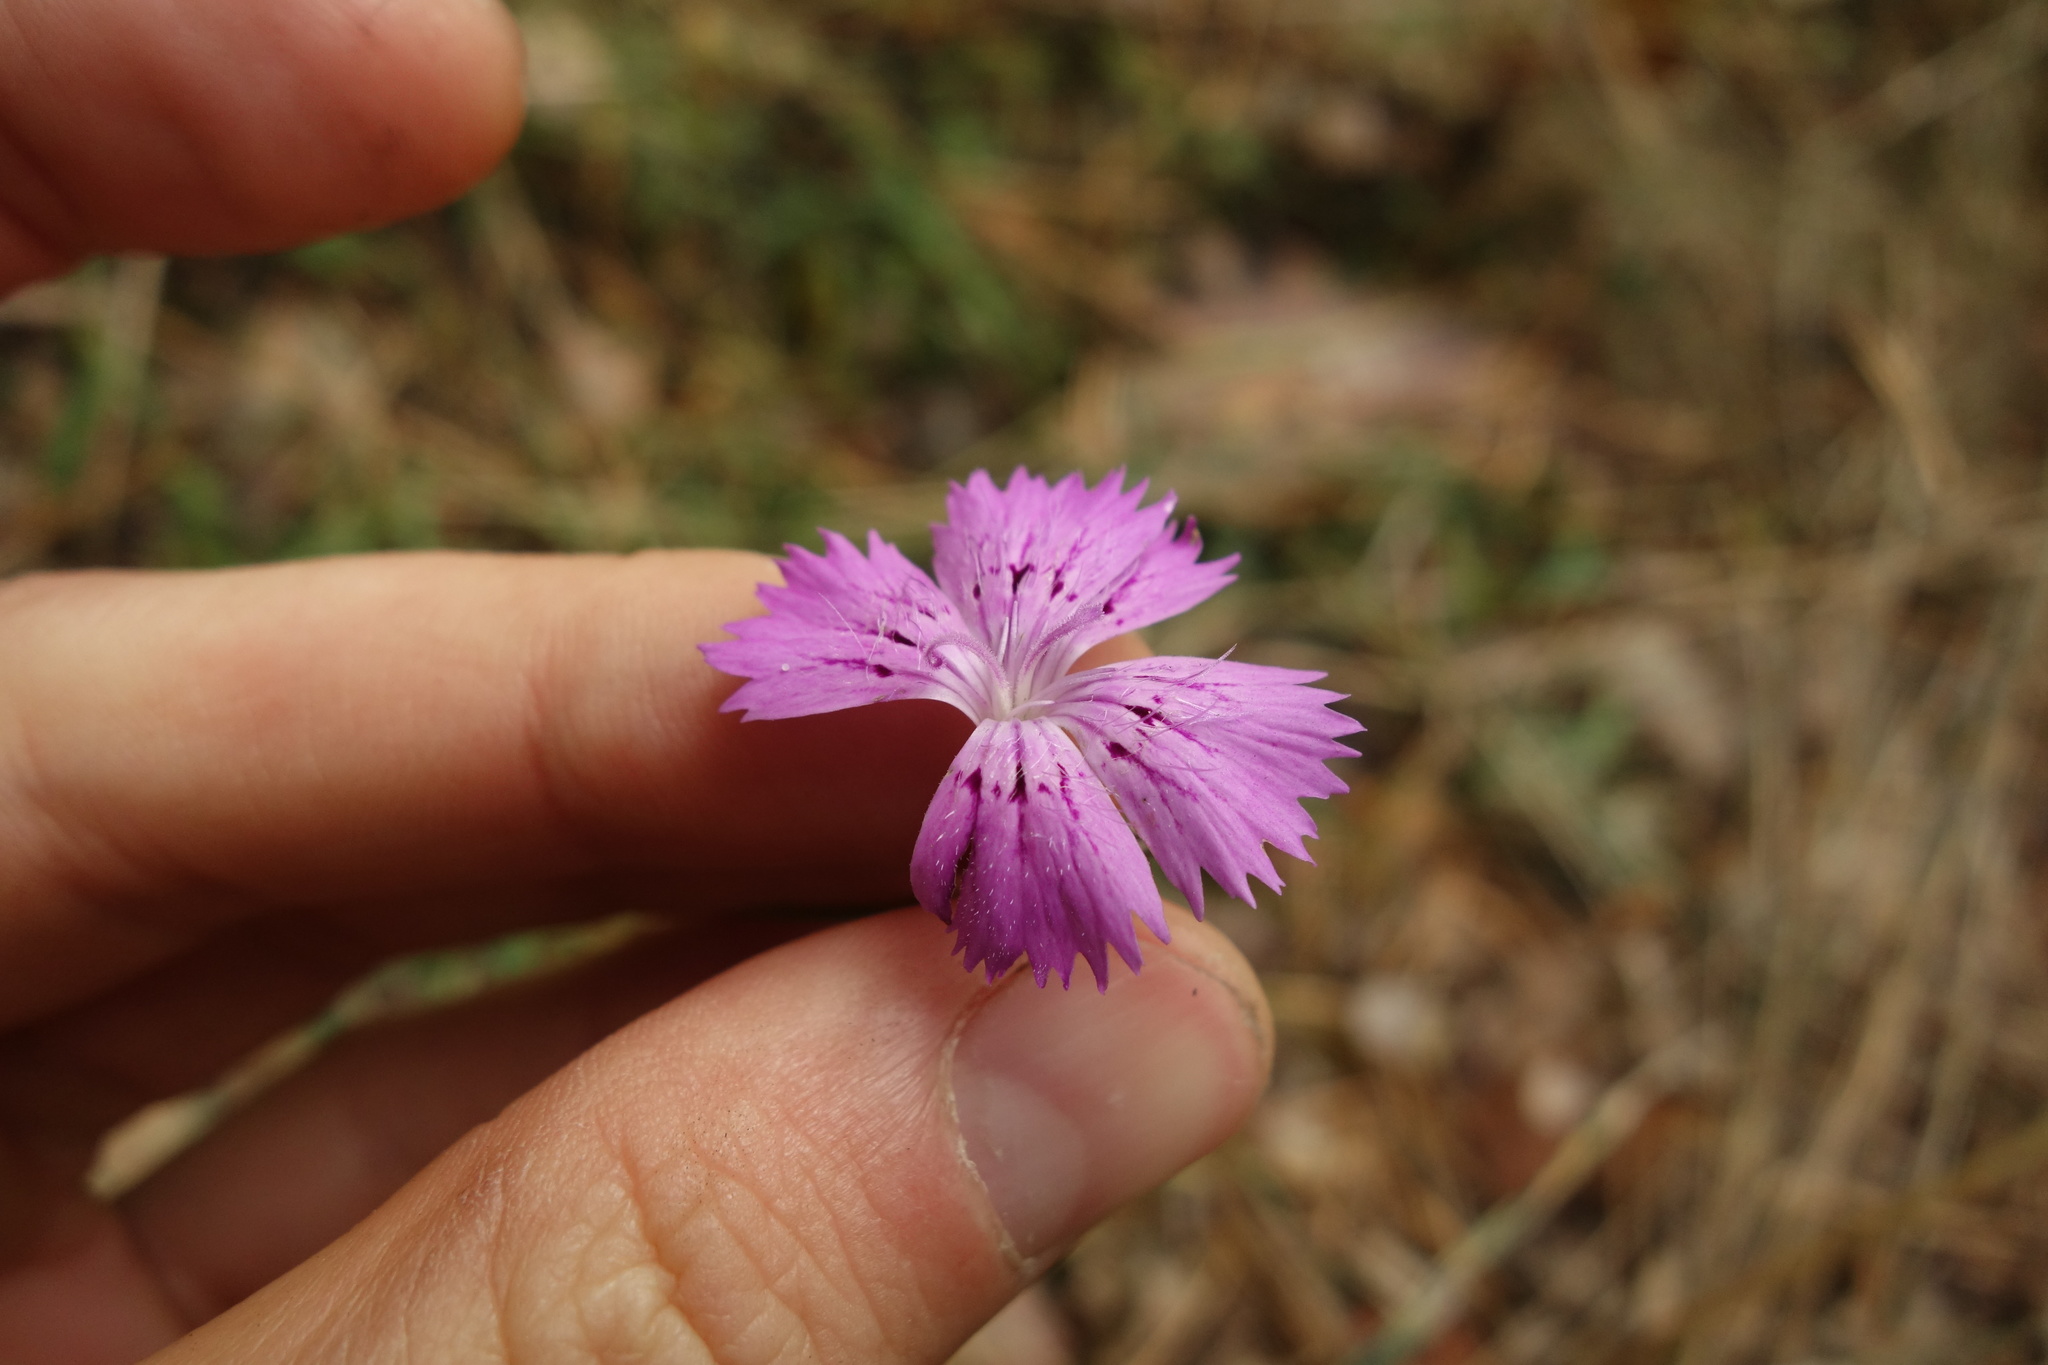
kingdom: Plantae
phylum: Tracheophyta
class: Magnoliopsida
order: Caryophyllales
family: Caryophyllaceae
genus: Dianthus
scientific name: Dianthus chinensis
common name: Rainbow pink
